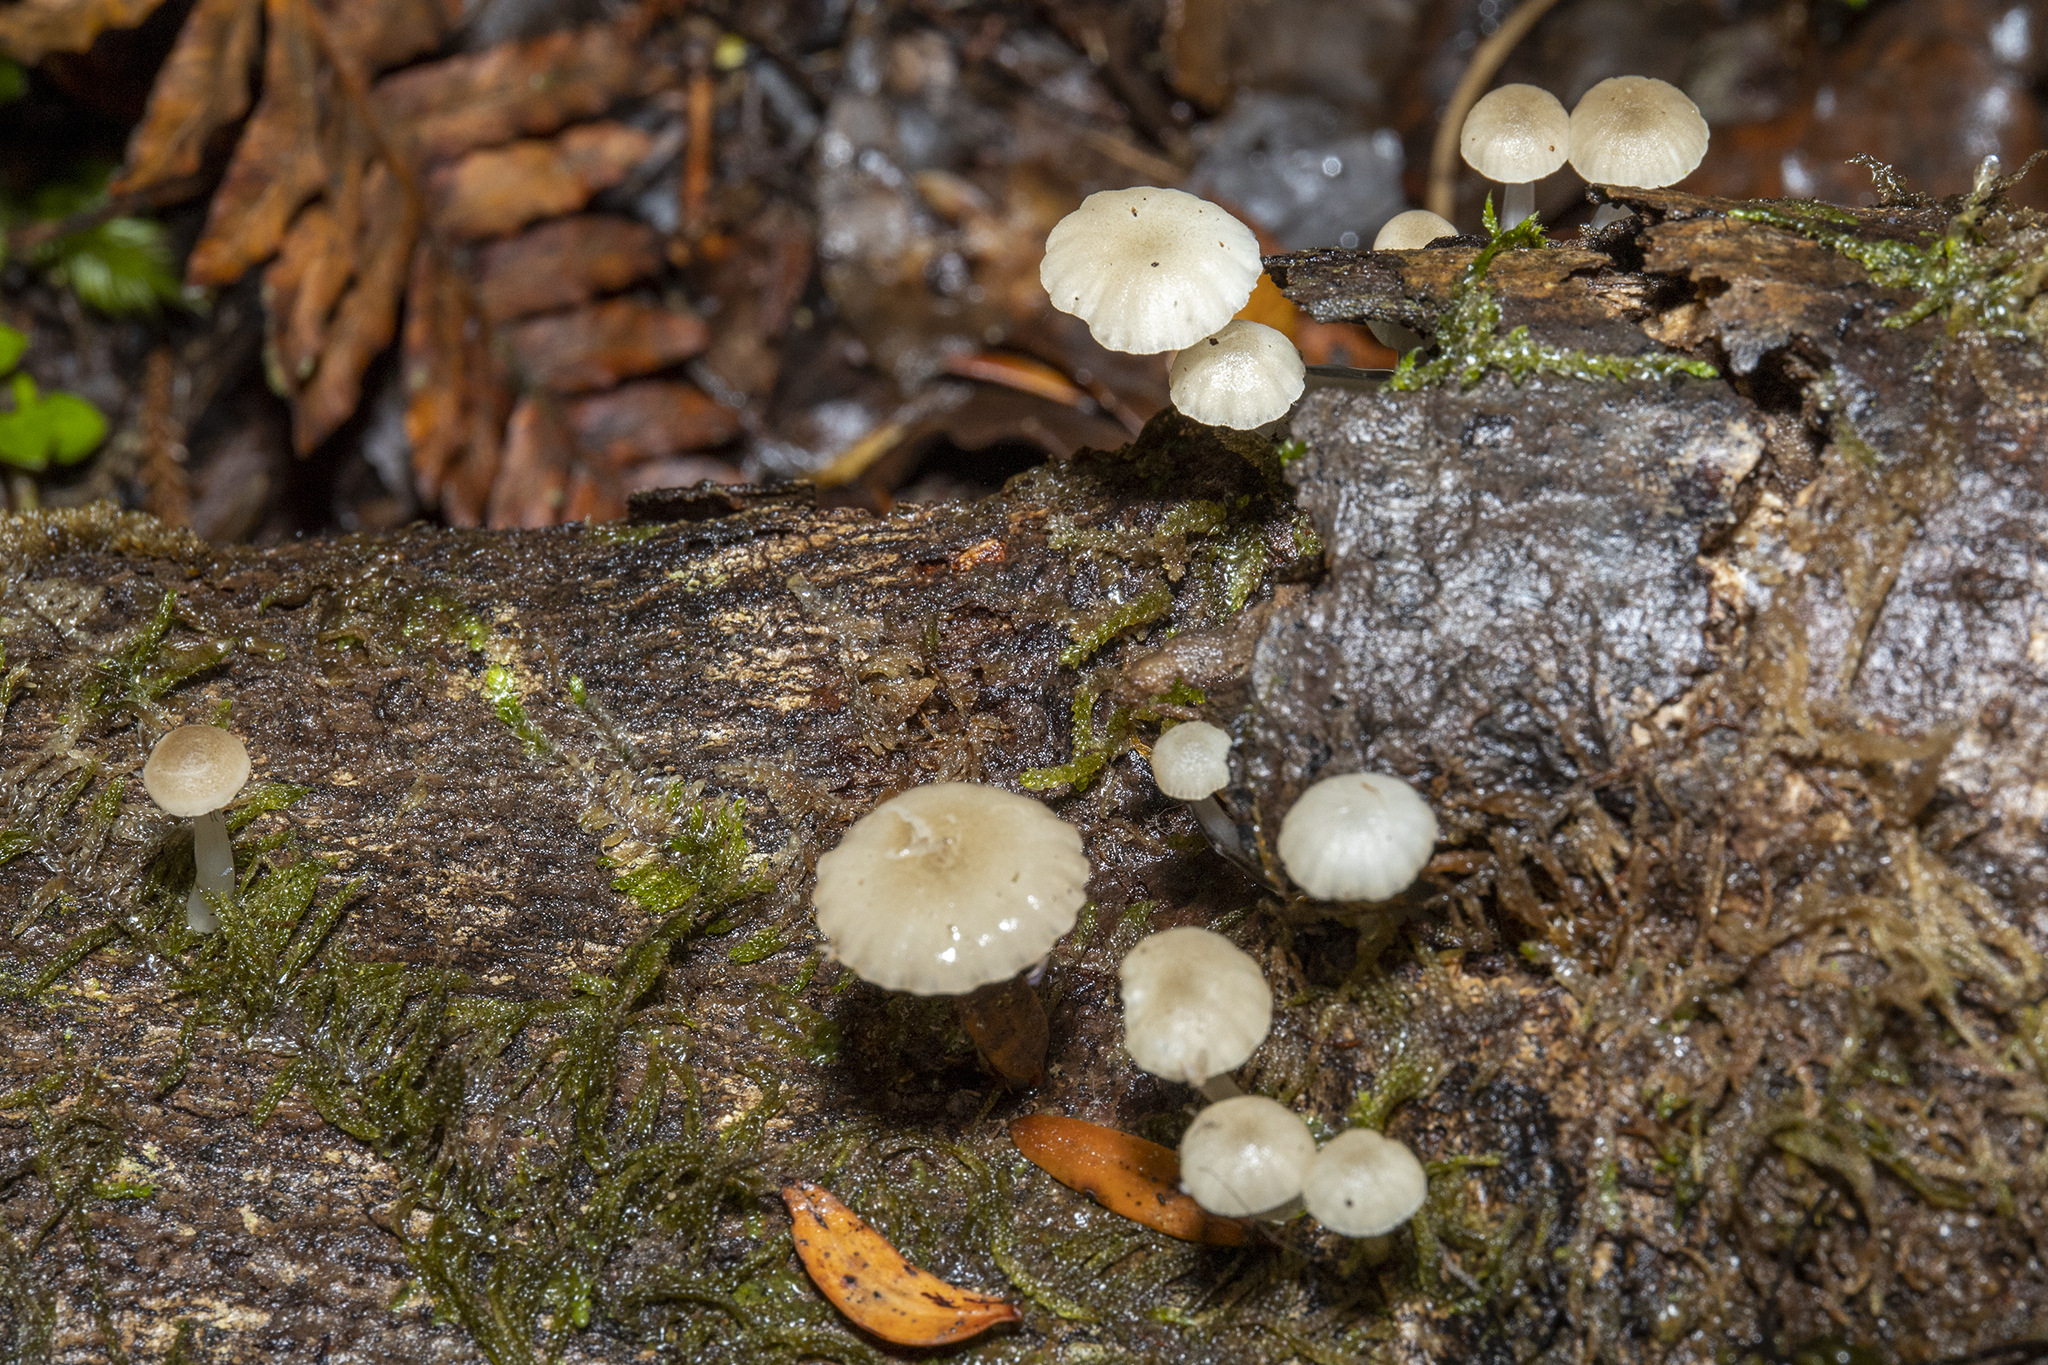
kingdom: Fungi
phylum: Basidiomycota
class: Agaricomycetes
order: Agaricales
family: Mycenaceae
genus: Roridomyces
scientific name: Roridomyces austrororidus
